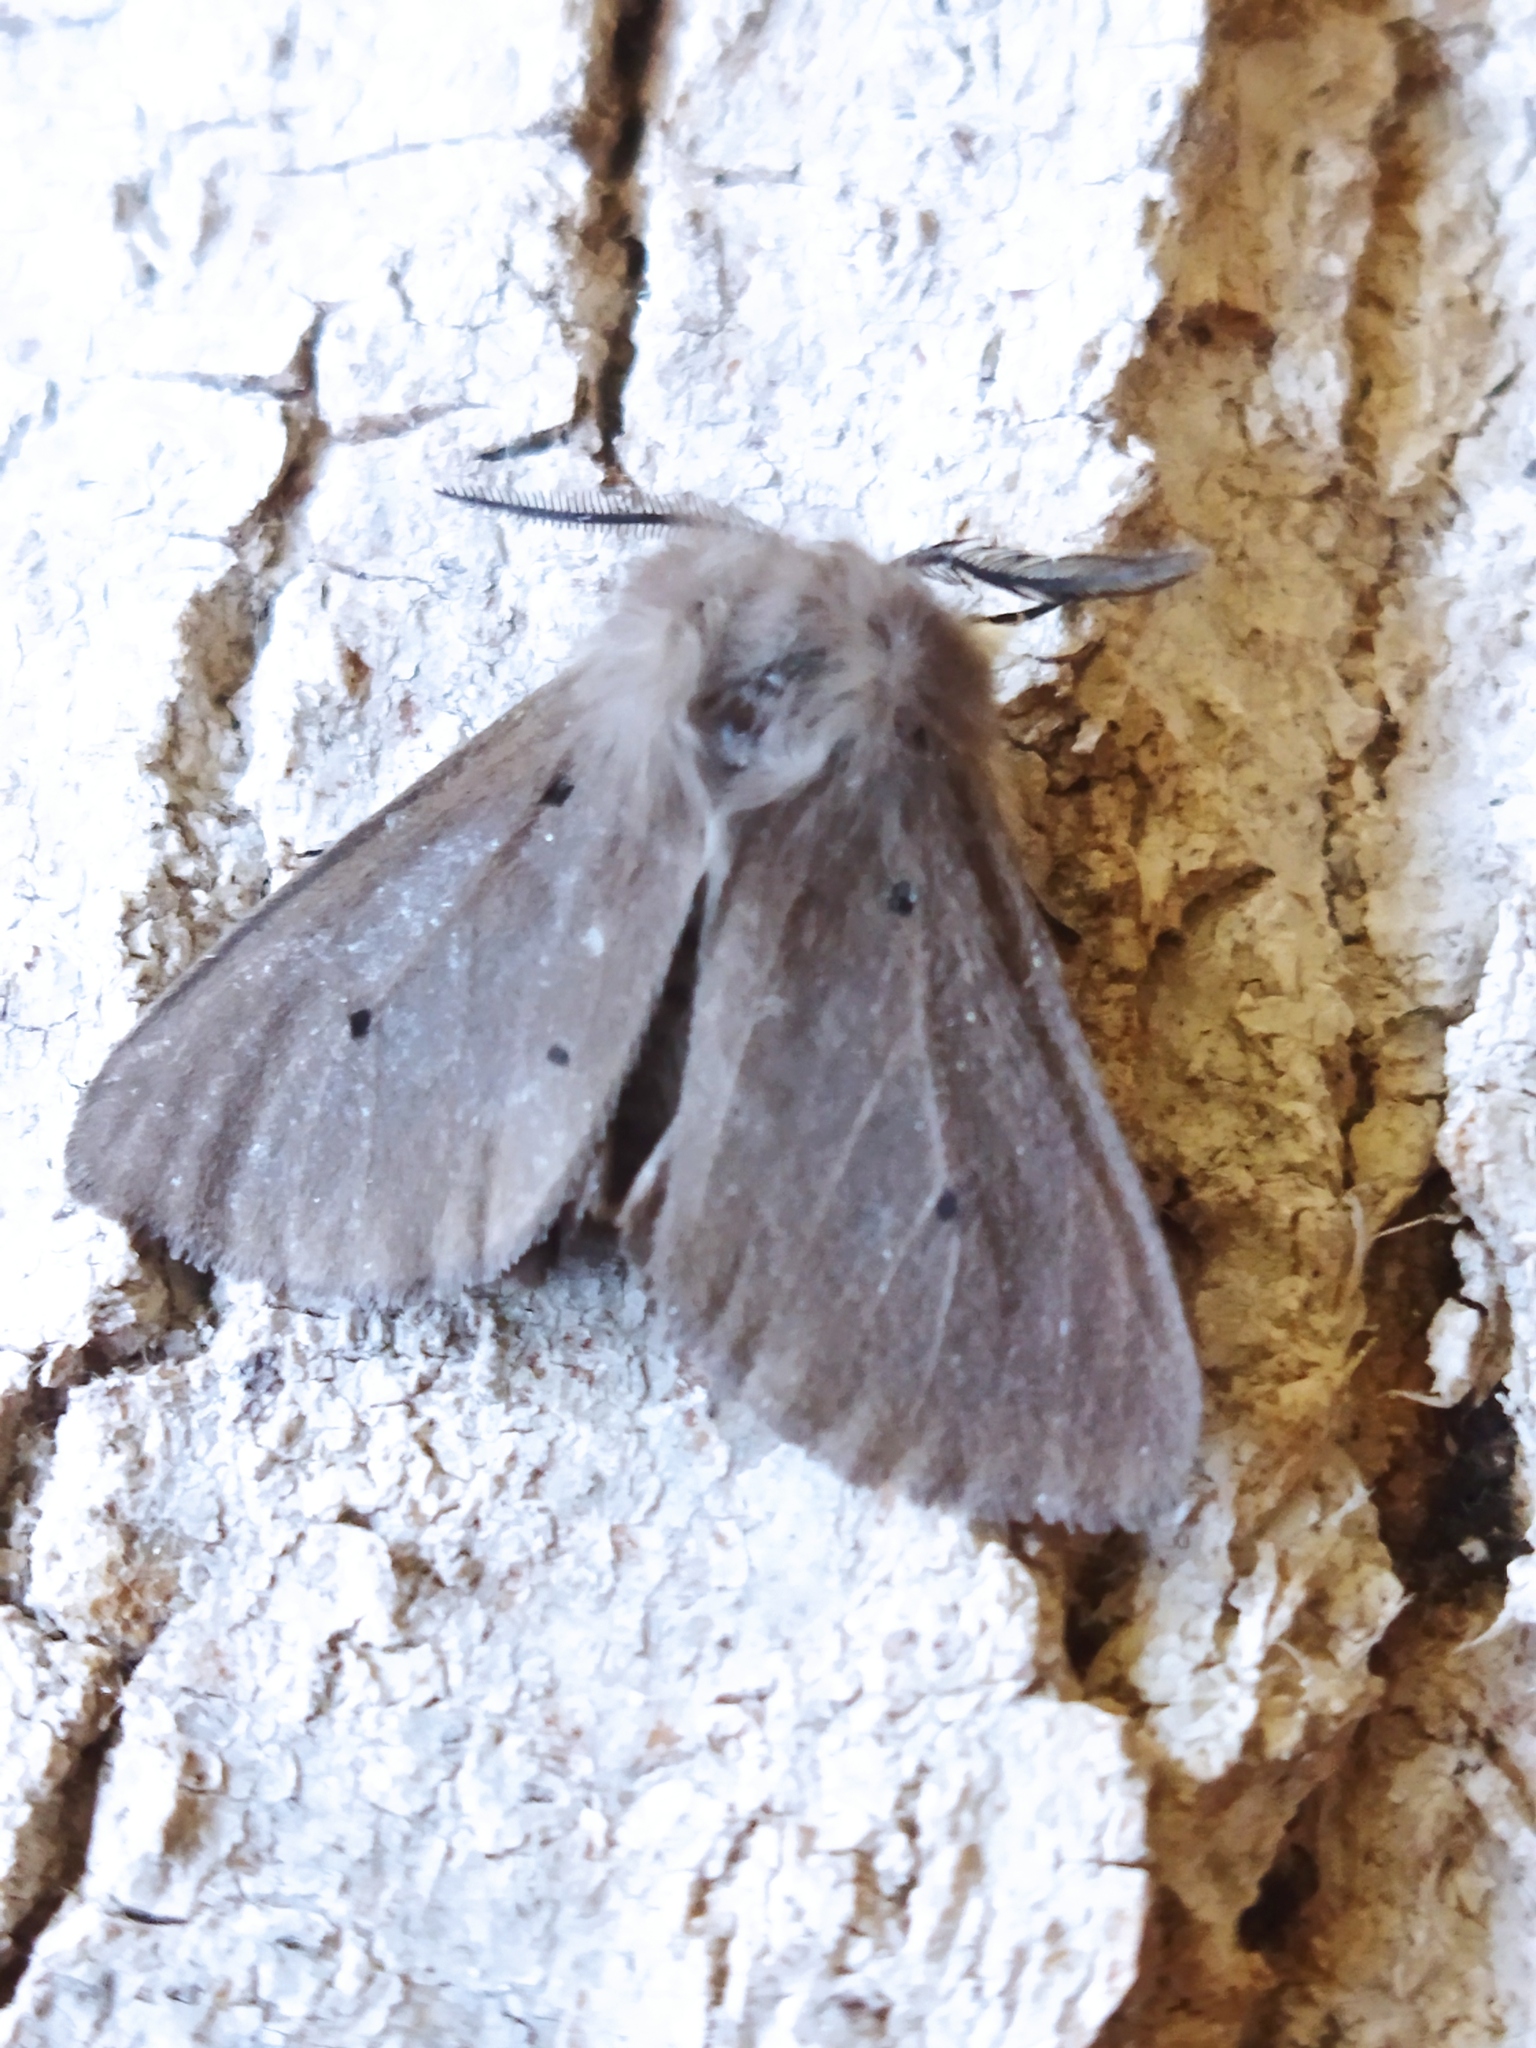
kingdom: Animalia
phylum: Arthropoda
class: Insecta
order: Lepidoptera
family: Erebidae
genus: Diaphora
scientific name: Diaphora mendica
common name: Muslin moth
